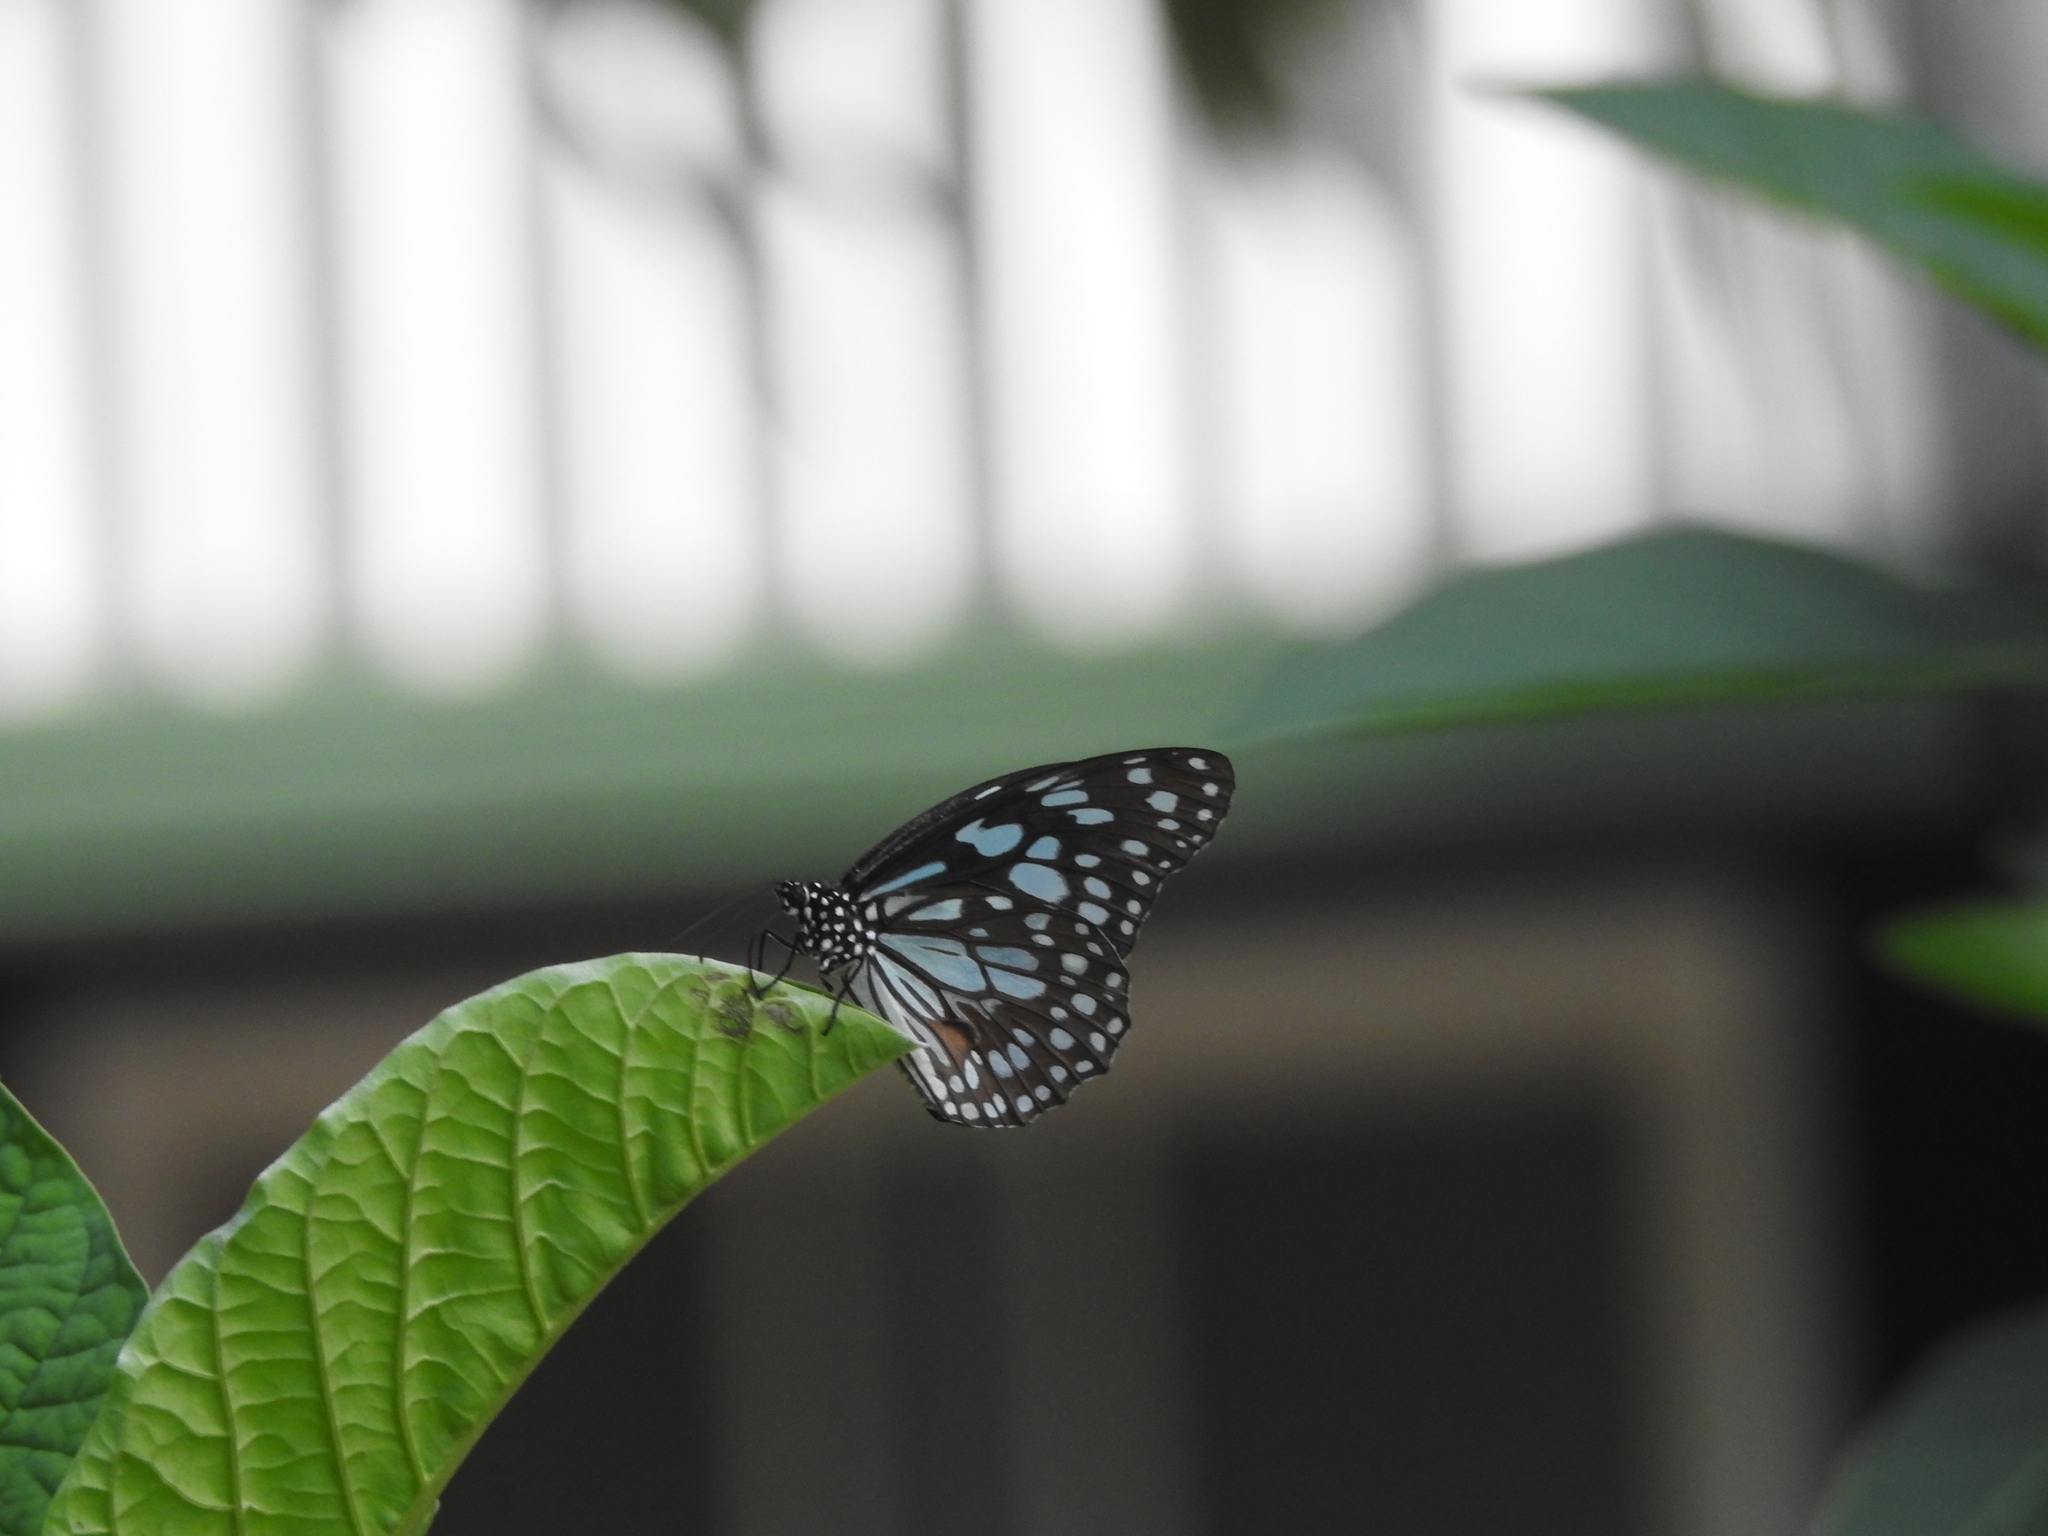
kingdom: Animalia
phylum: Arthropoda
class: Insecta
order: Lepidoptera
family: Nymphalidae
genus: Tirumala
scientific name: Tirumala limniace
